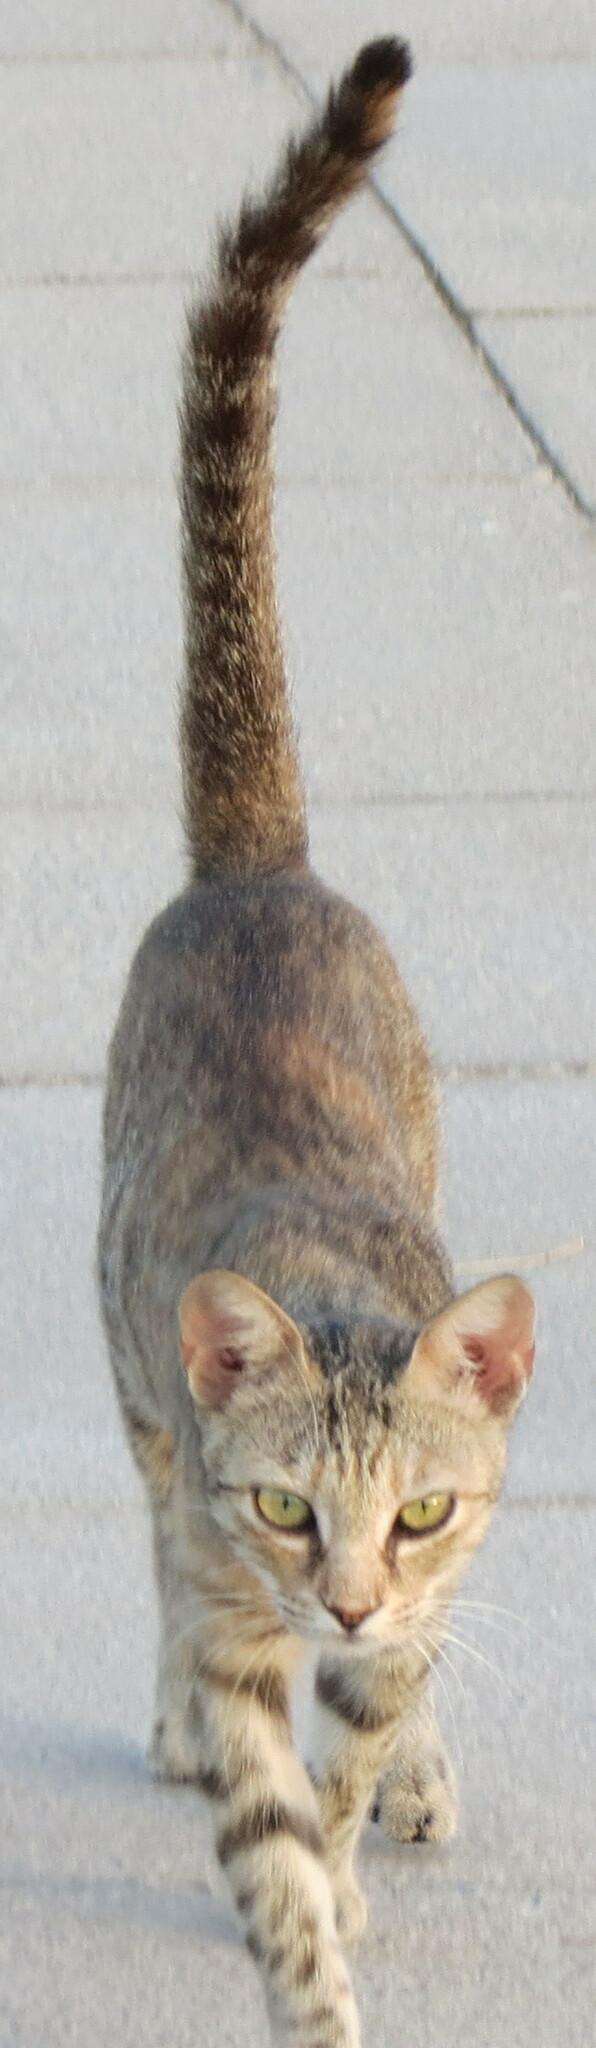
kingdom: Animalia
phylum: Chordata
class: Mammalia
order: Carnivora
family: Felidae
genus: Felis
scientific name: Felis catus
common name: Domestic cat
